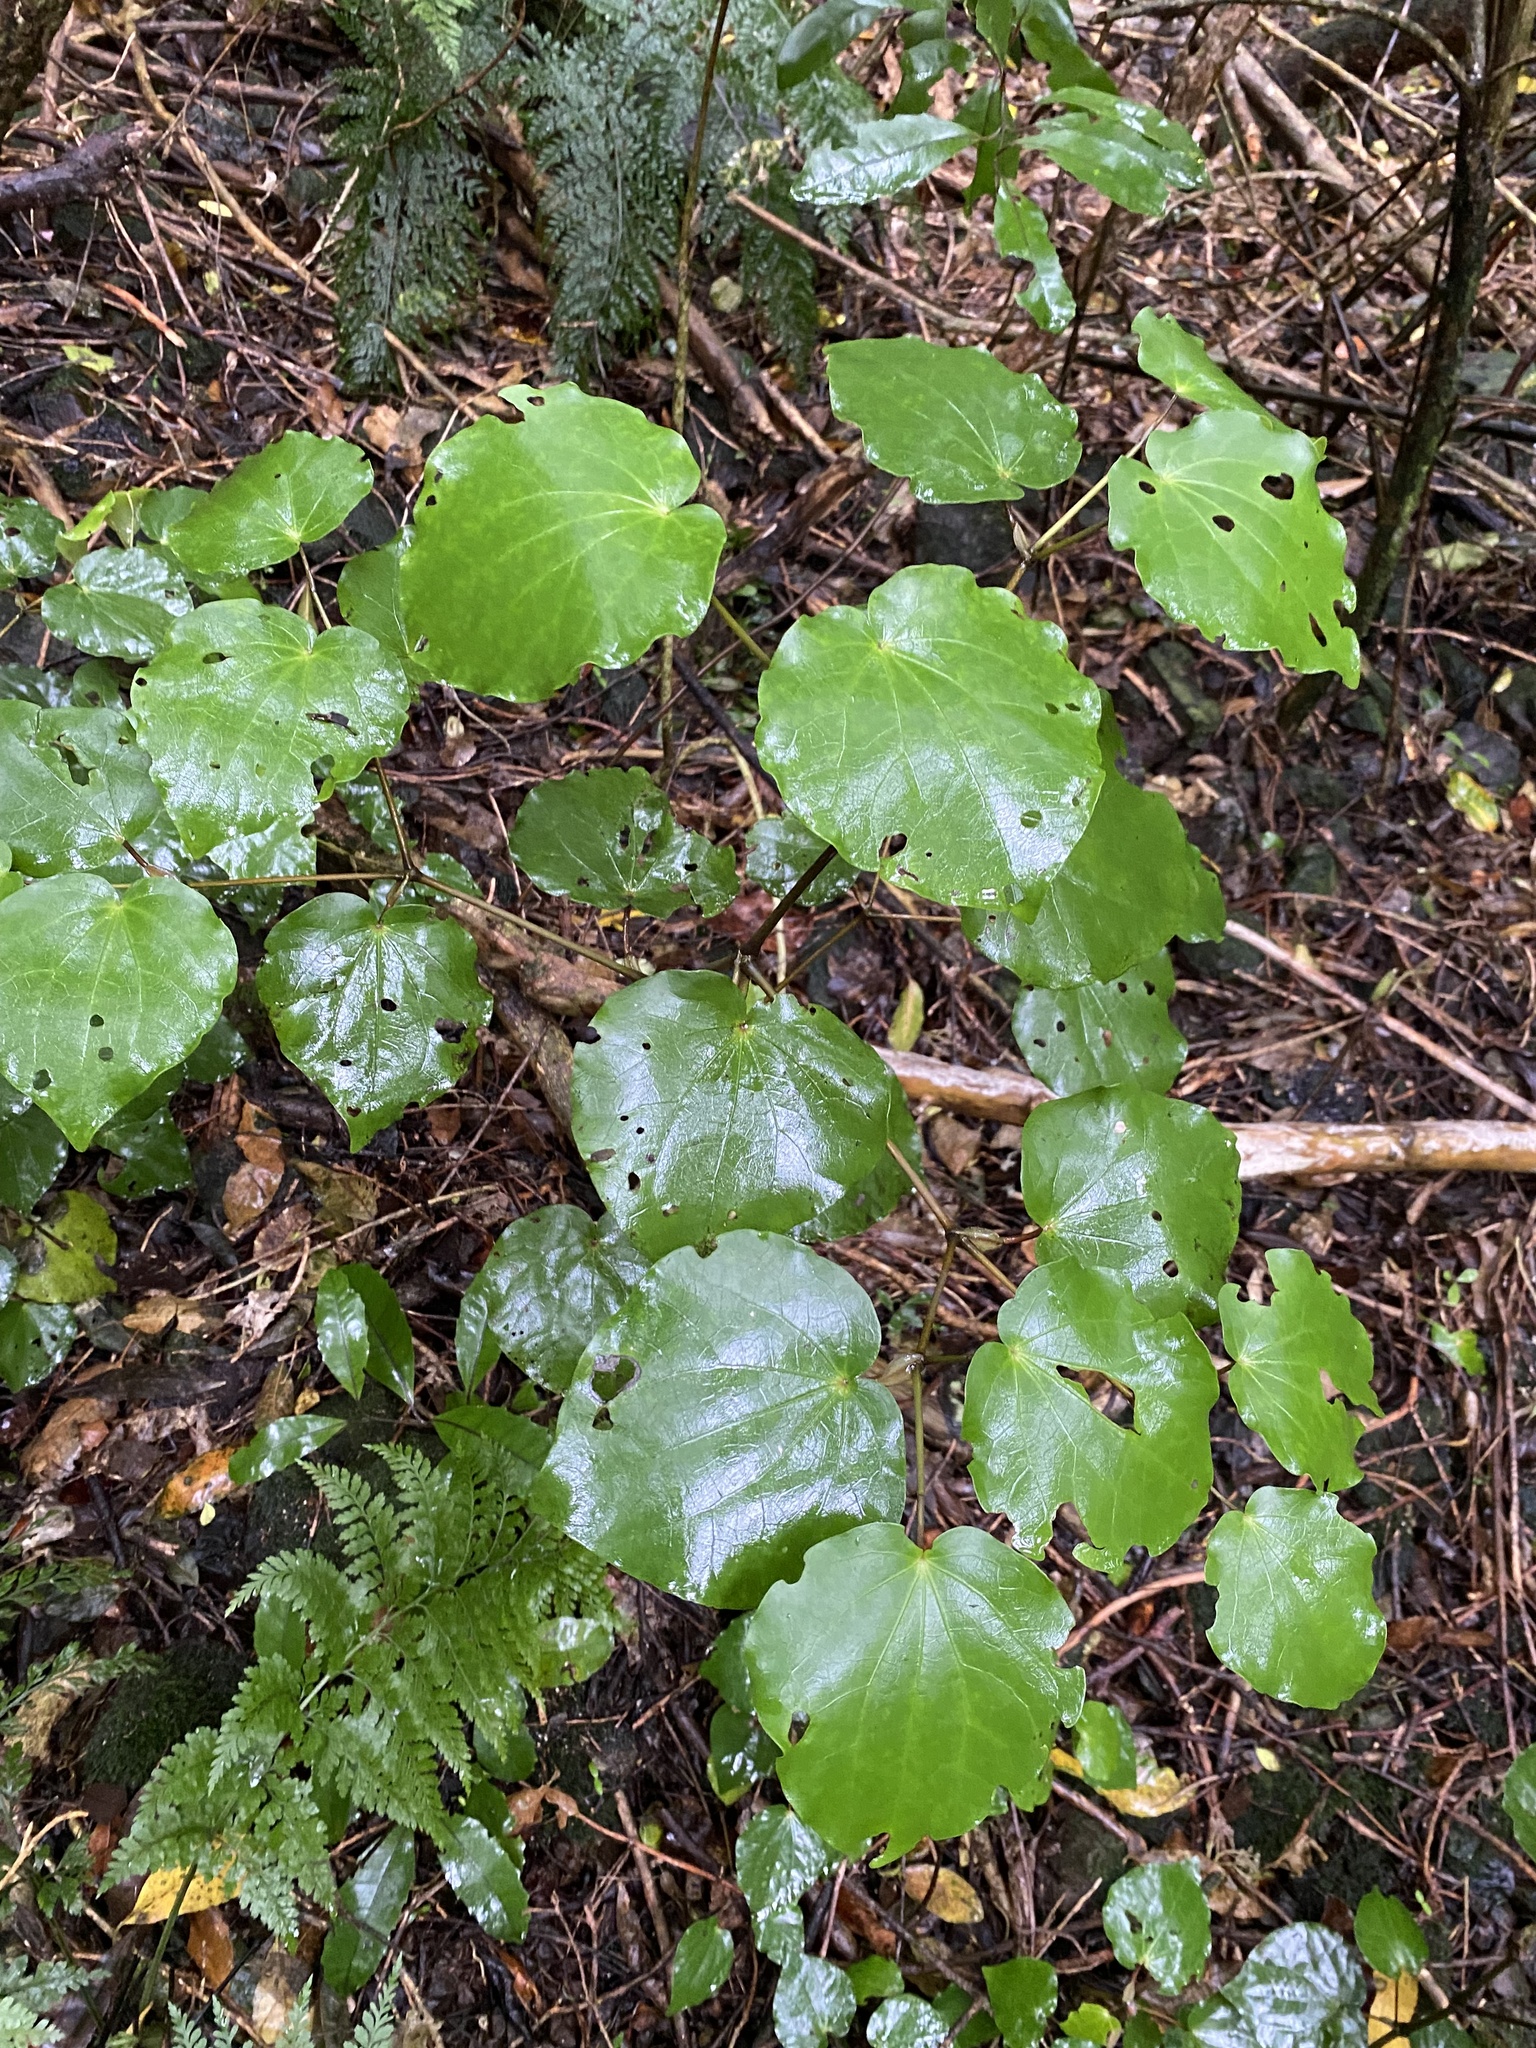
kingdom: Plantae
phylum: Tracheophyta
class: Magnoliopsida
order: Piperales
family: Piperaceae
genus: Macropiper
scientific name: Macropiper excelsum
